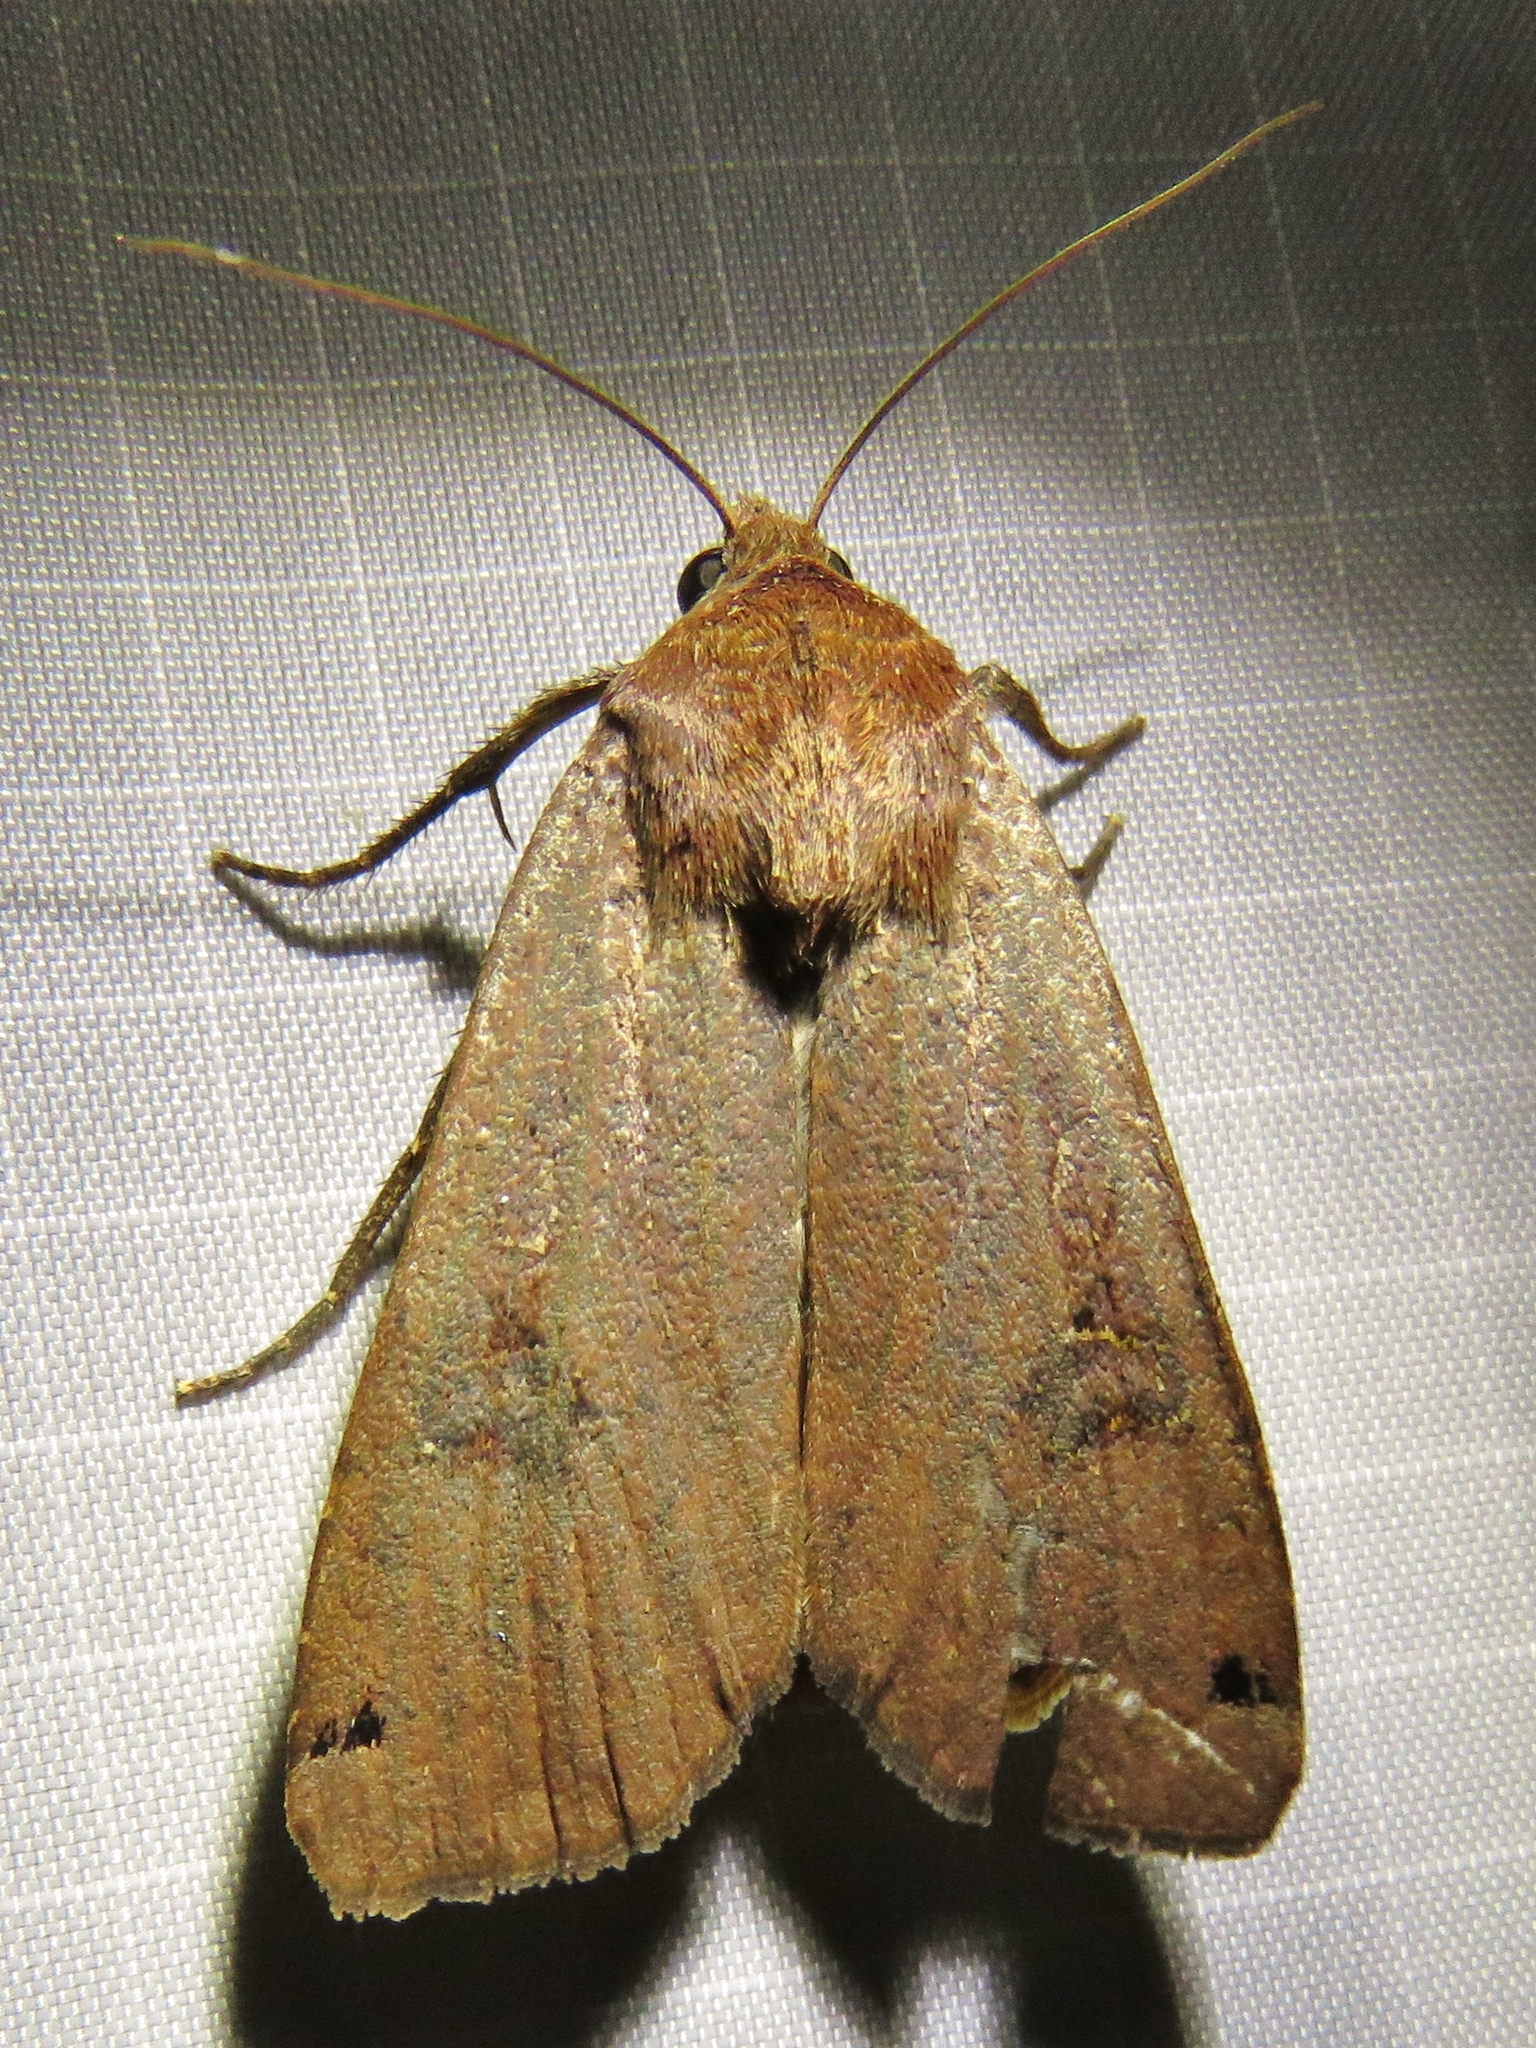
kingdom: Animalia
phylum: Arthropoda
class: Insecta
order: Lepidoptera
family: Noctuidae
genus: Noctua
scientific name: Noctua pronuba
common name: Large yellow underwing
